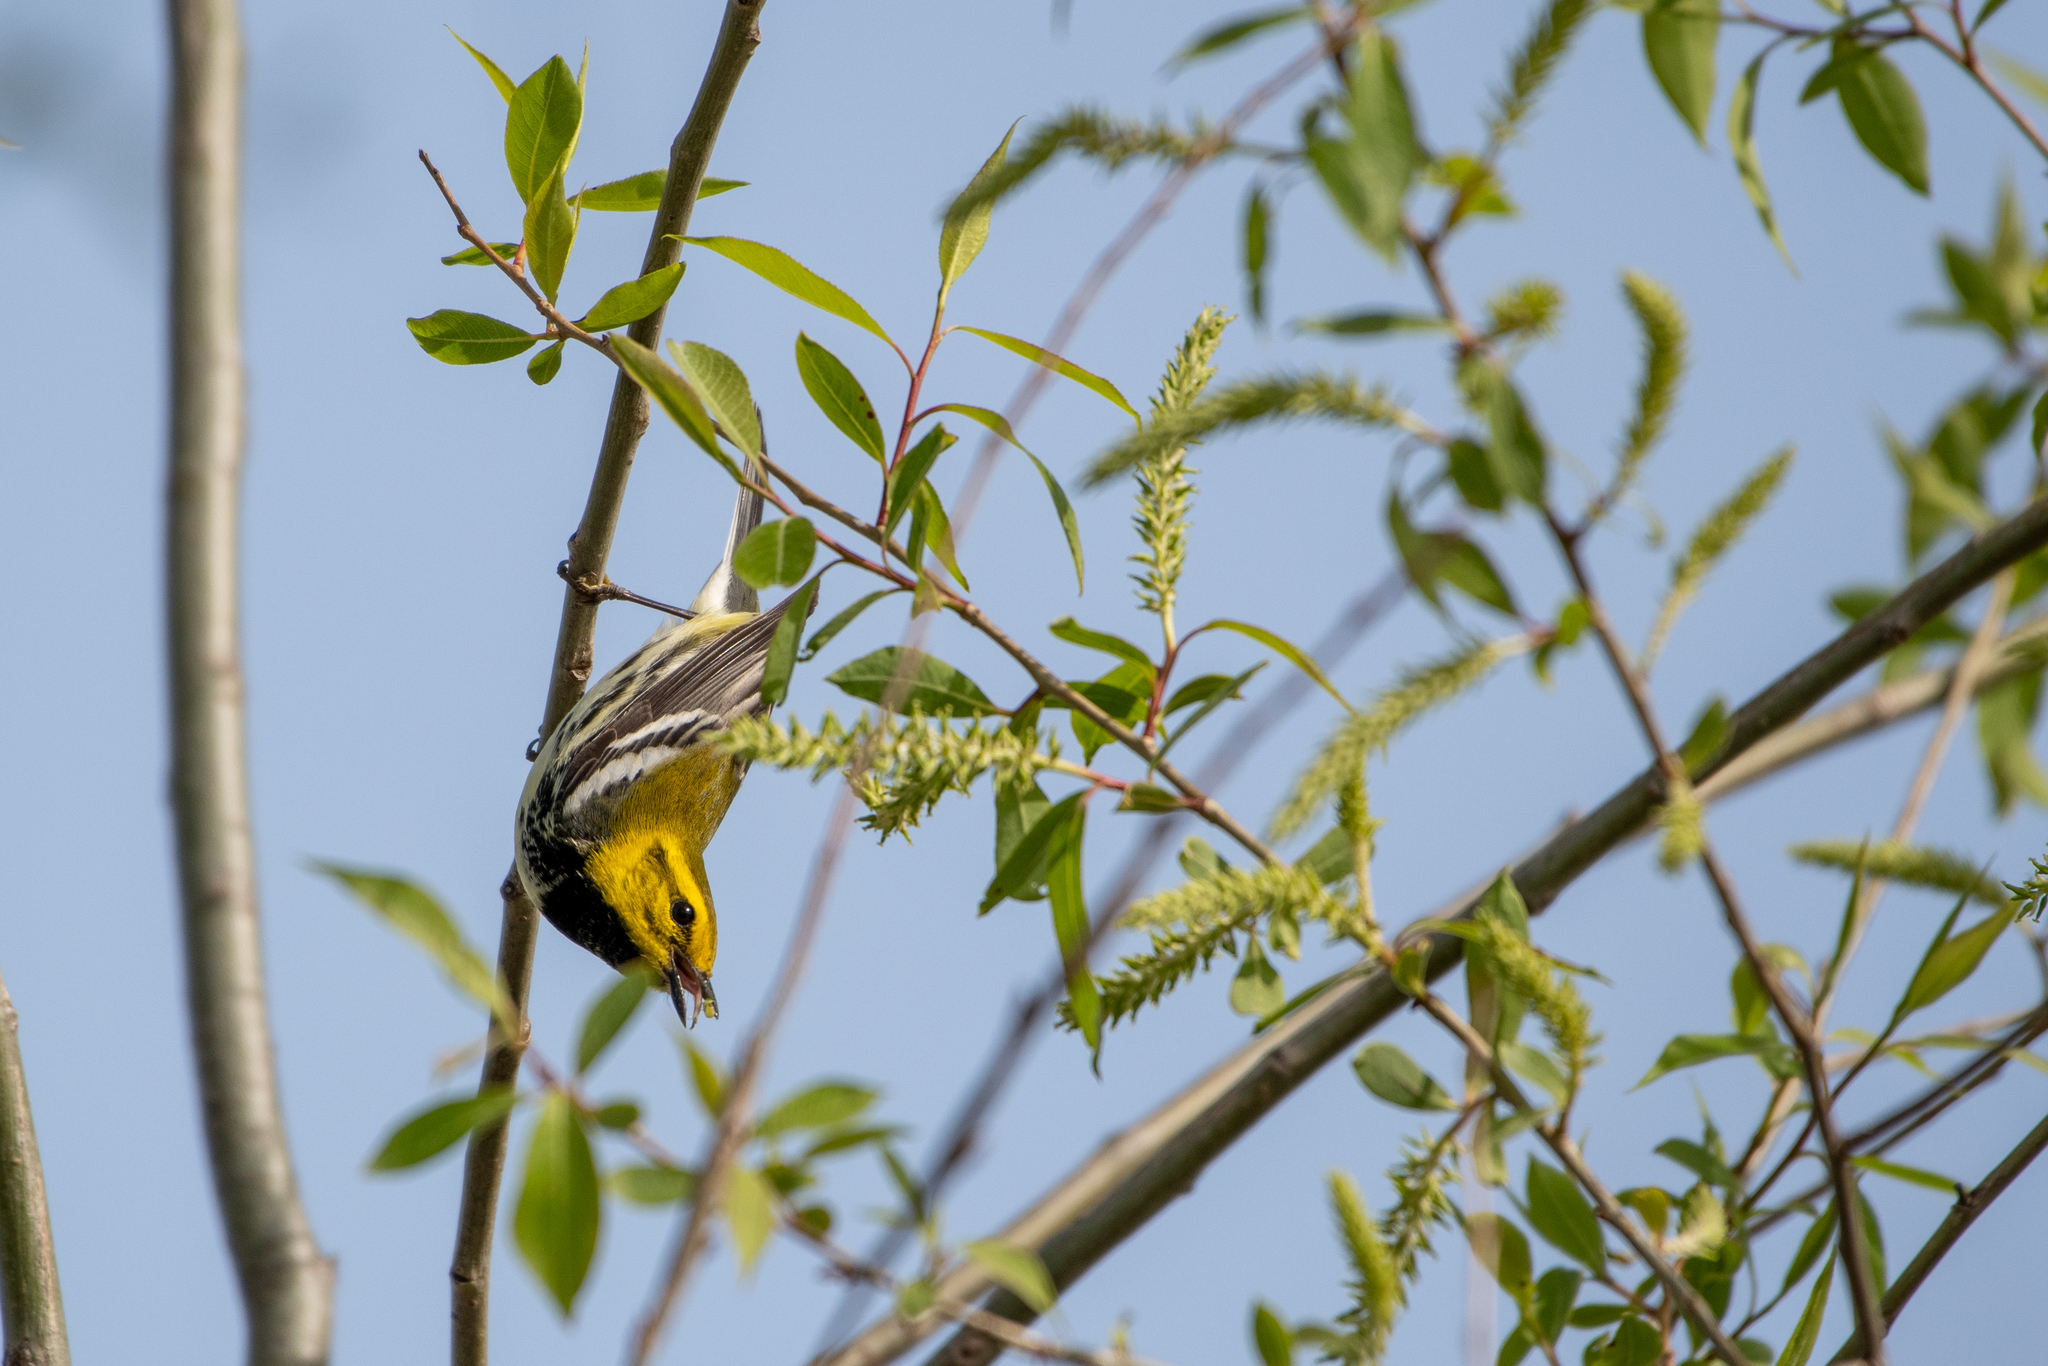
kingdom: Animalia
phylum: Chordata
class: Aves
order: Passeriformes
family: Parulidae
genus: Setophaga
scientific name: Setophaga virens
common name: Black-throated green warbler
